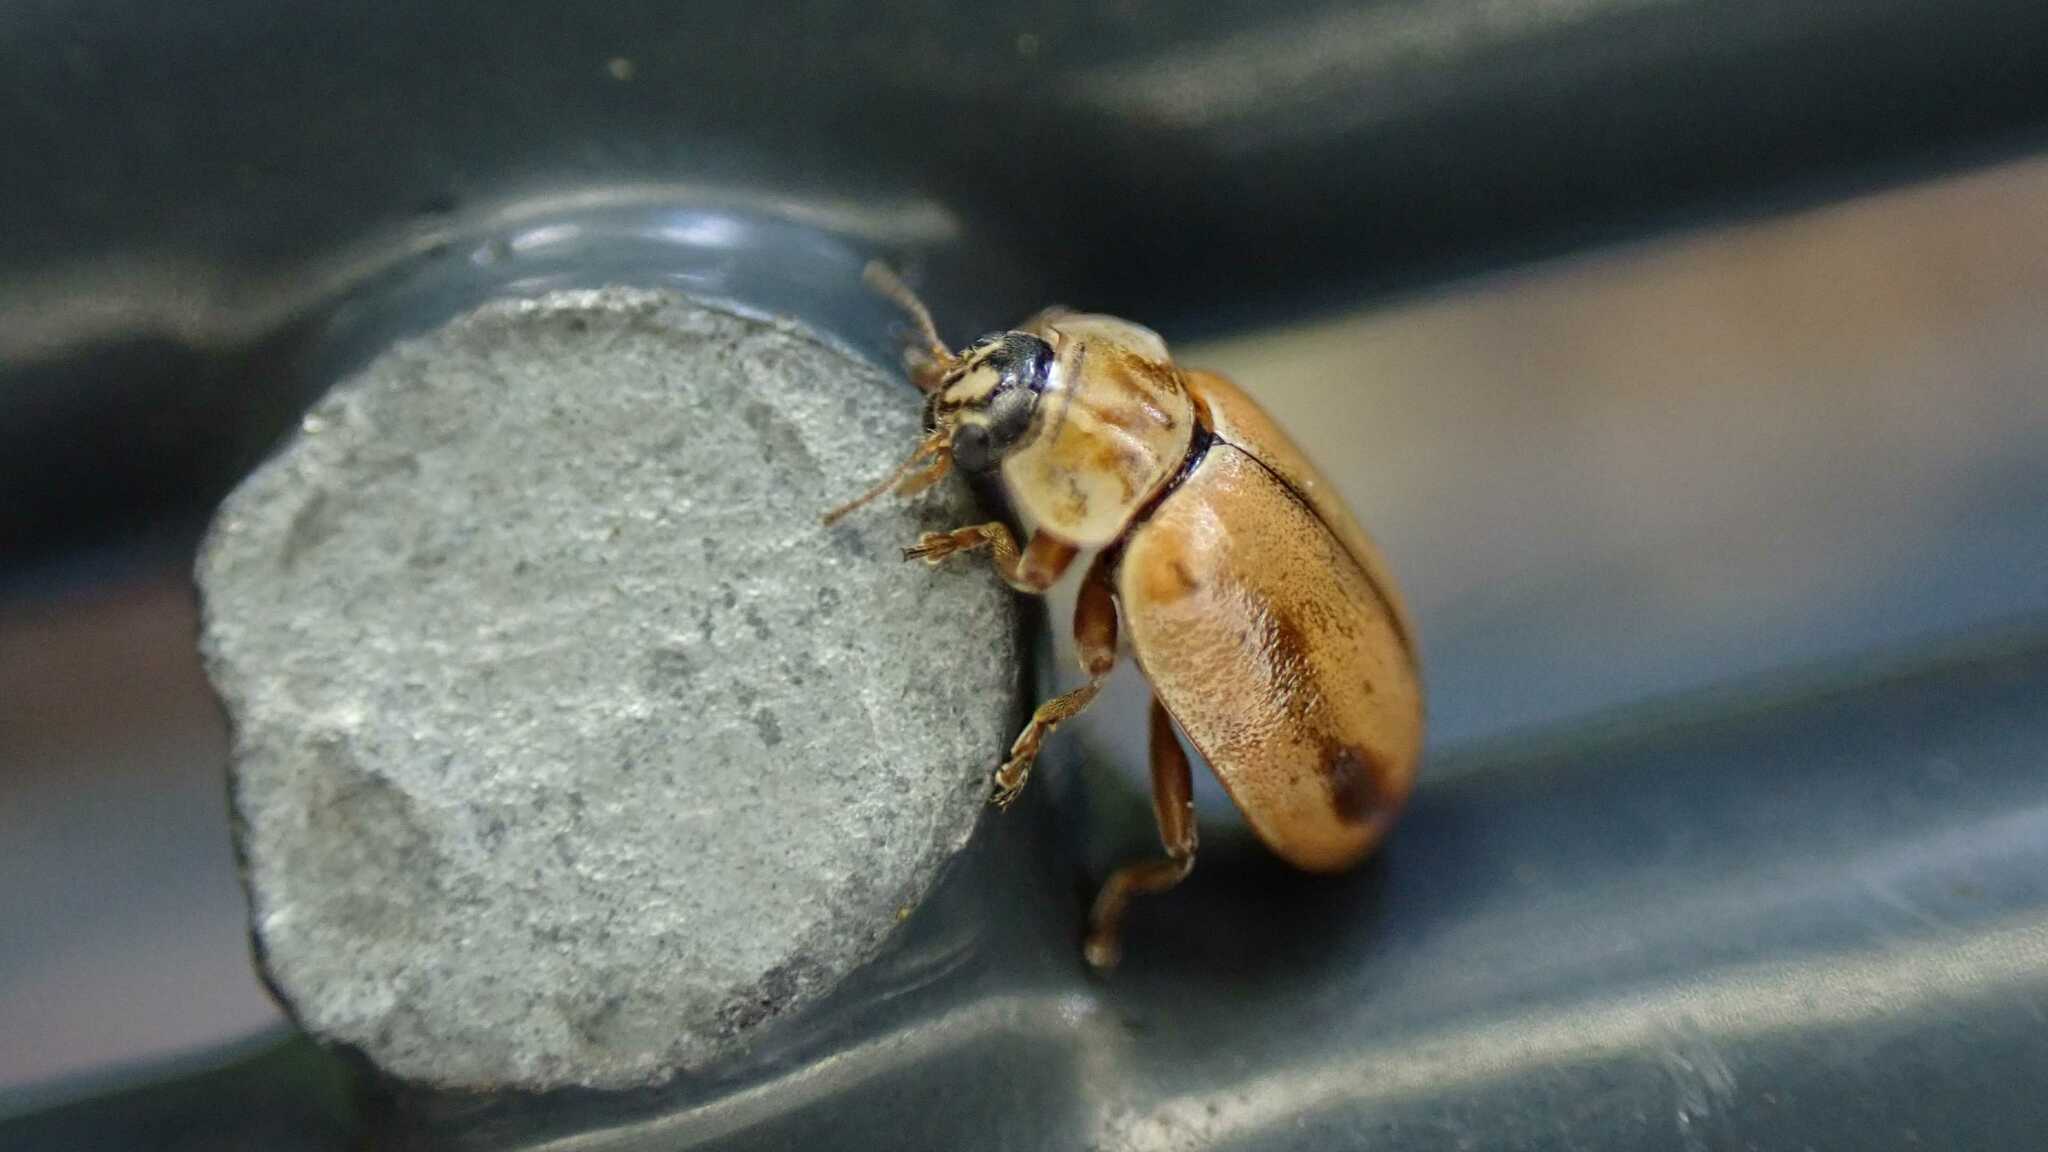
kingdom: Animalia
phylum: Arthropoda
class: Insecta
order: Coleoptera
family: Coccinellidae
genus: Aphidecta
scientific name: Aphidecta obliterata
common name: Larch ladybird
